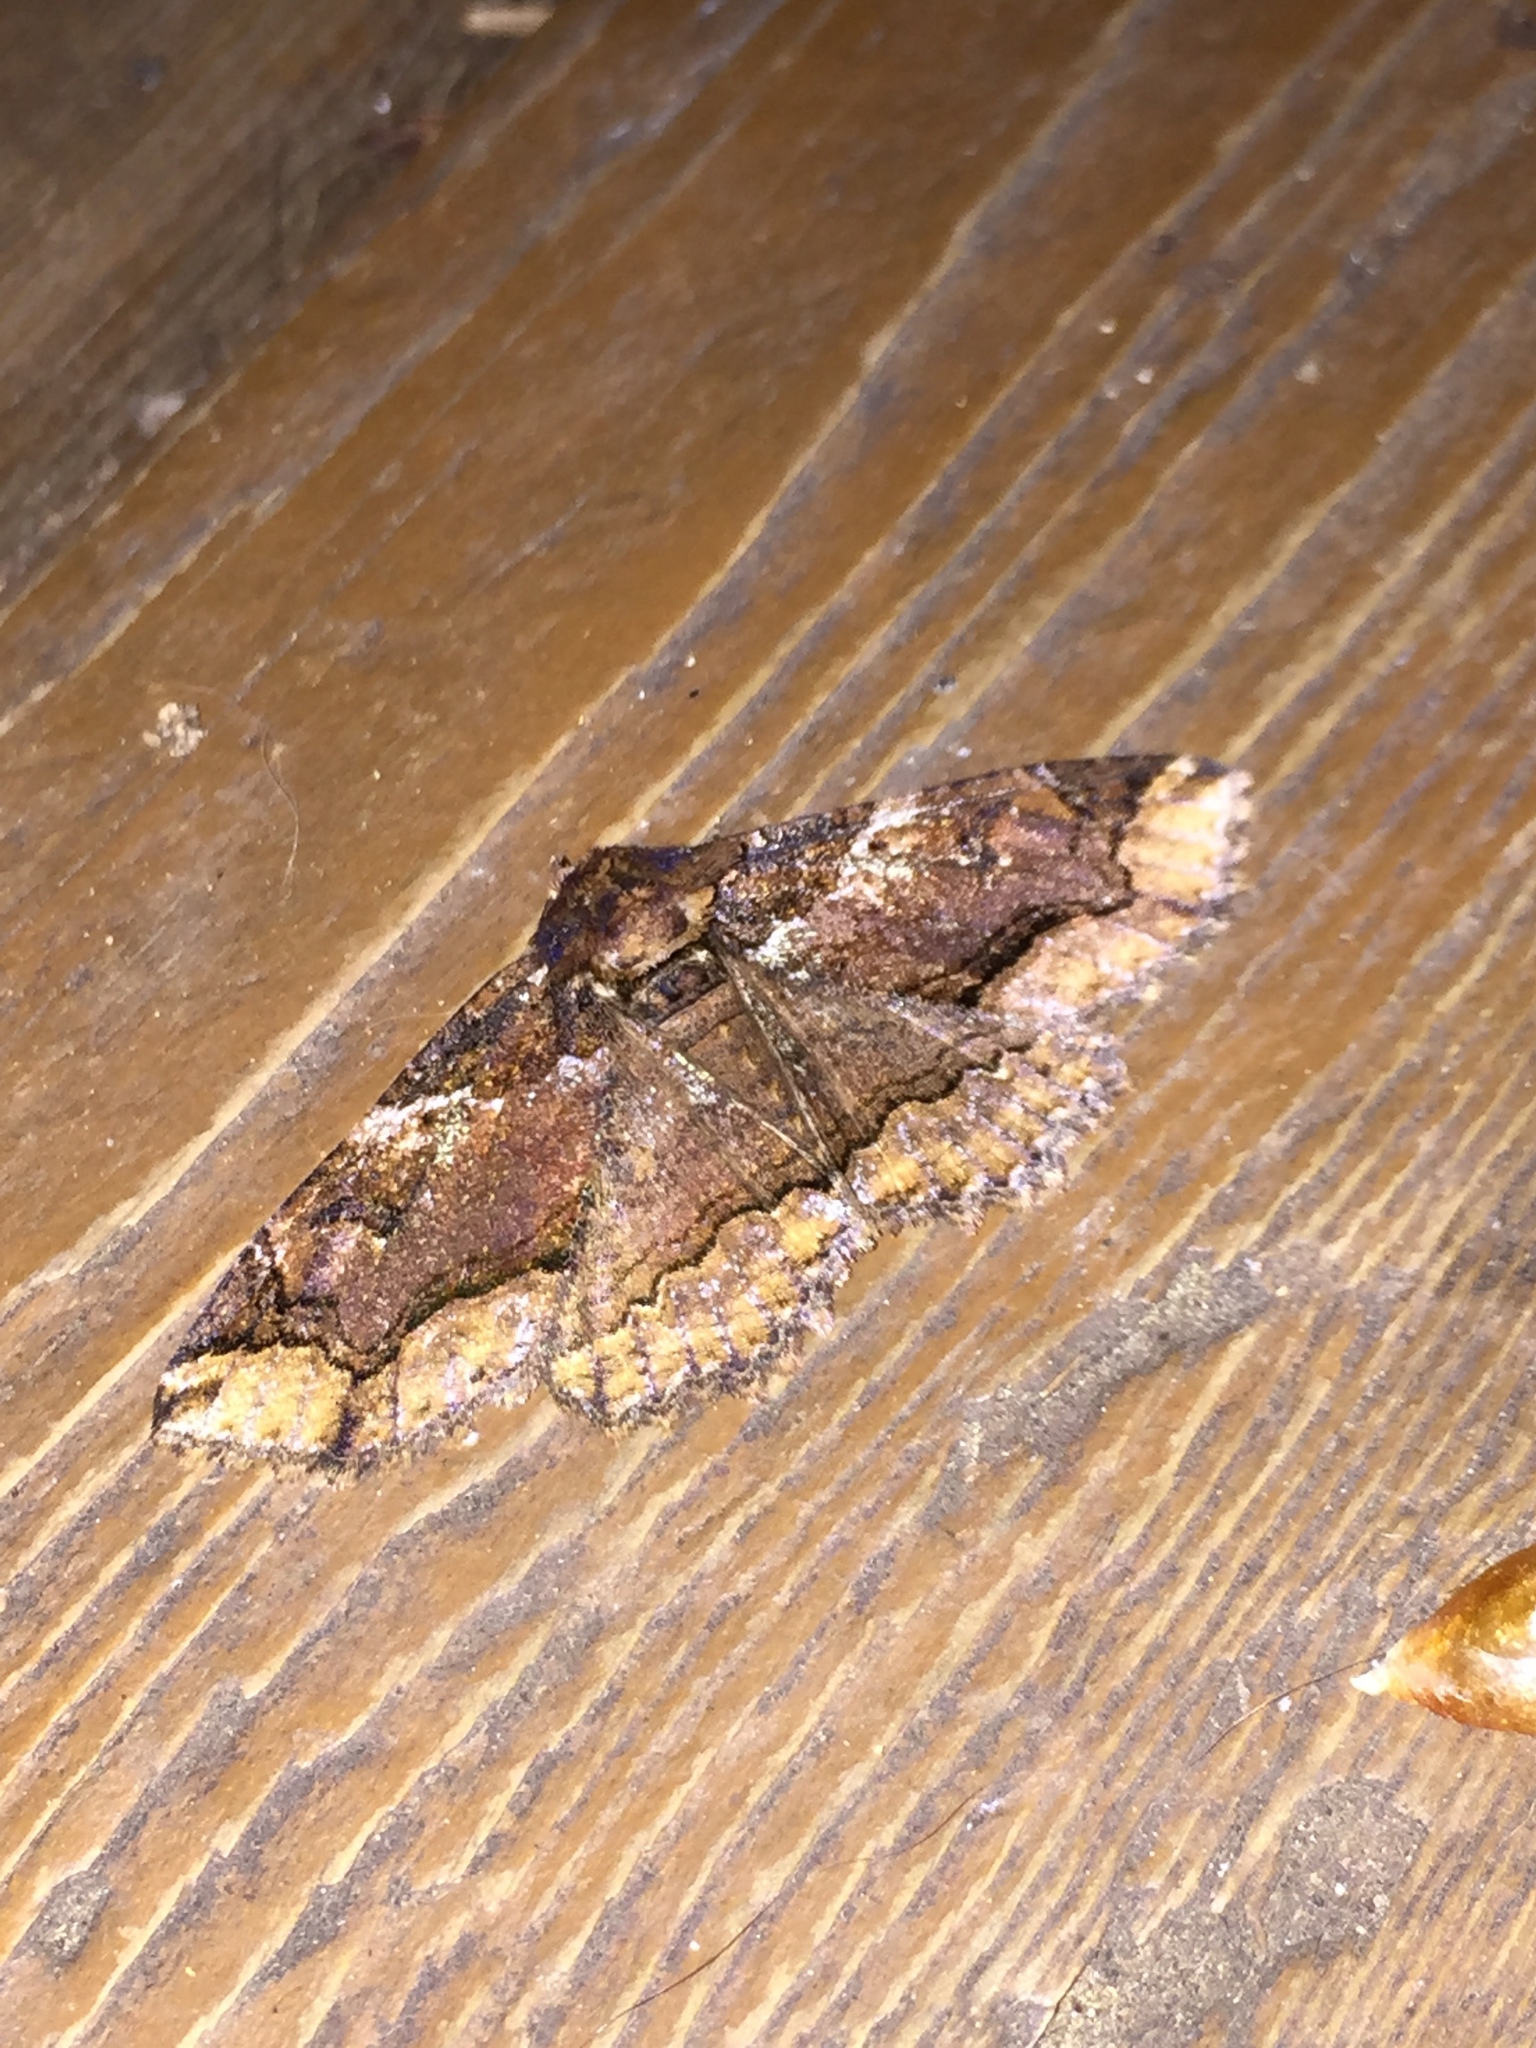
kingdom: Animalia
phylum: Arthropoda
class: Insecta
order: Lepidoptera
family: Erebidae
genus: Zale
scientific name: Zale minerea
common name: Colorful zale moth
